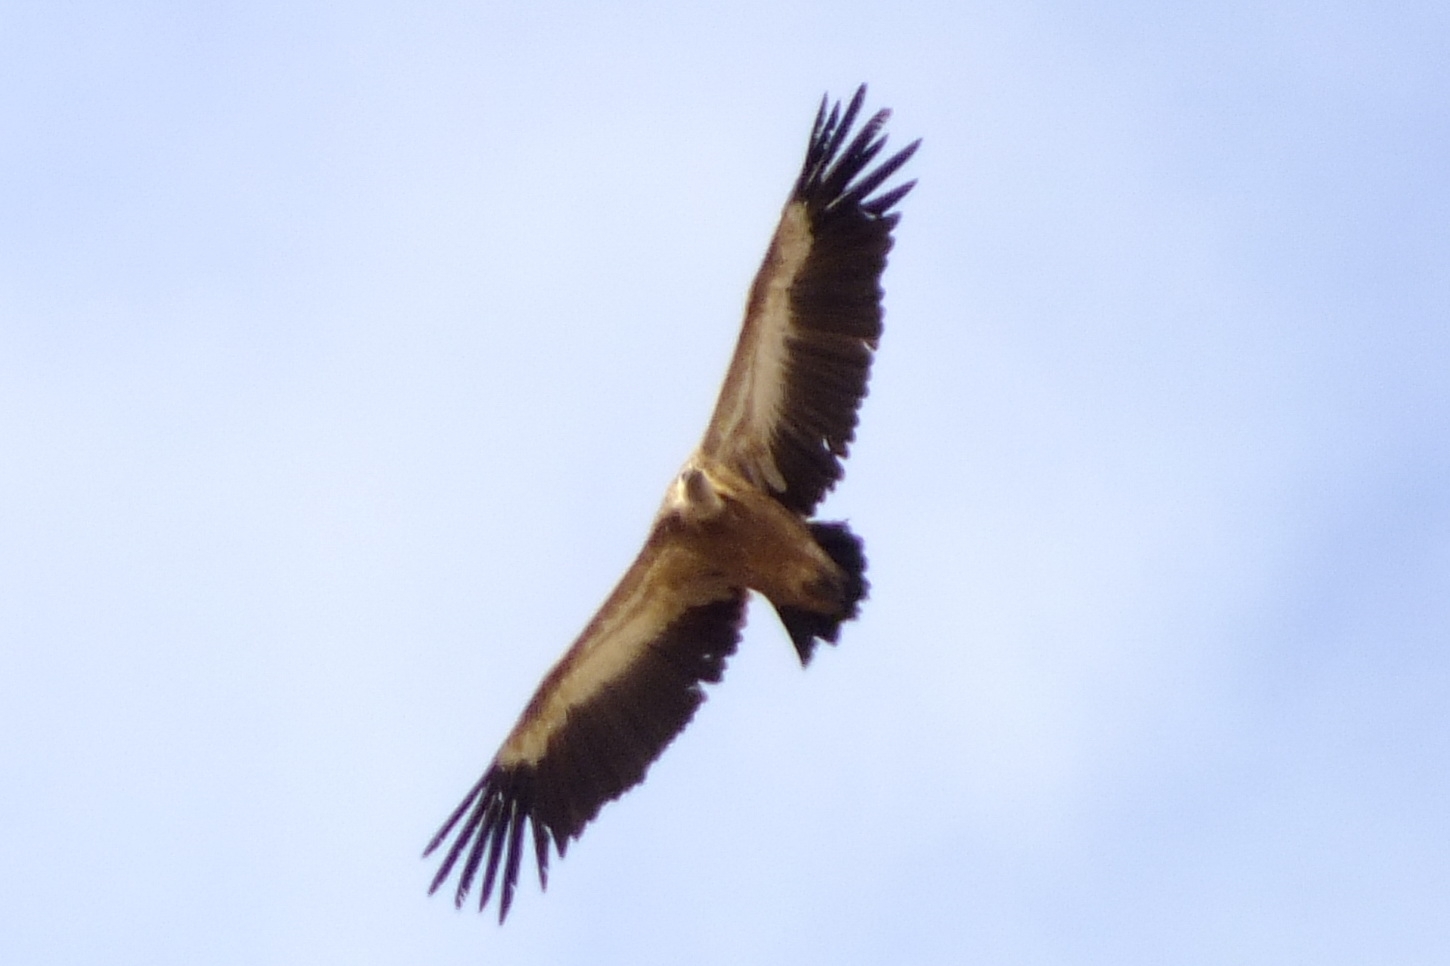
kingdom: Animalia
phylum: Chordata
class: Aves
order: Accipitriformes
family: Accipitridae
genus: Gyps
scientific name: Gyps fulvus
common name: Griffon vulture
